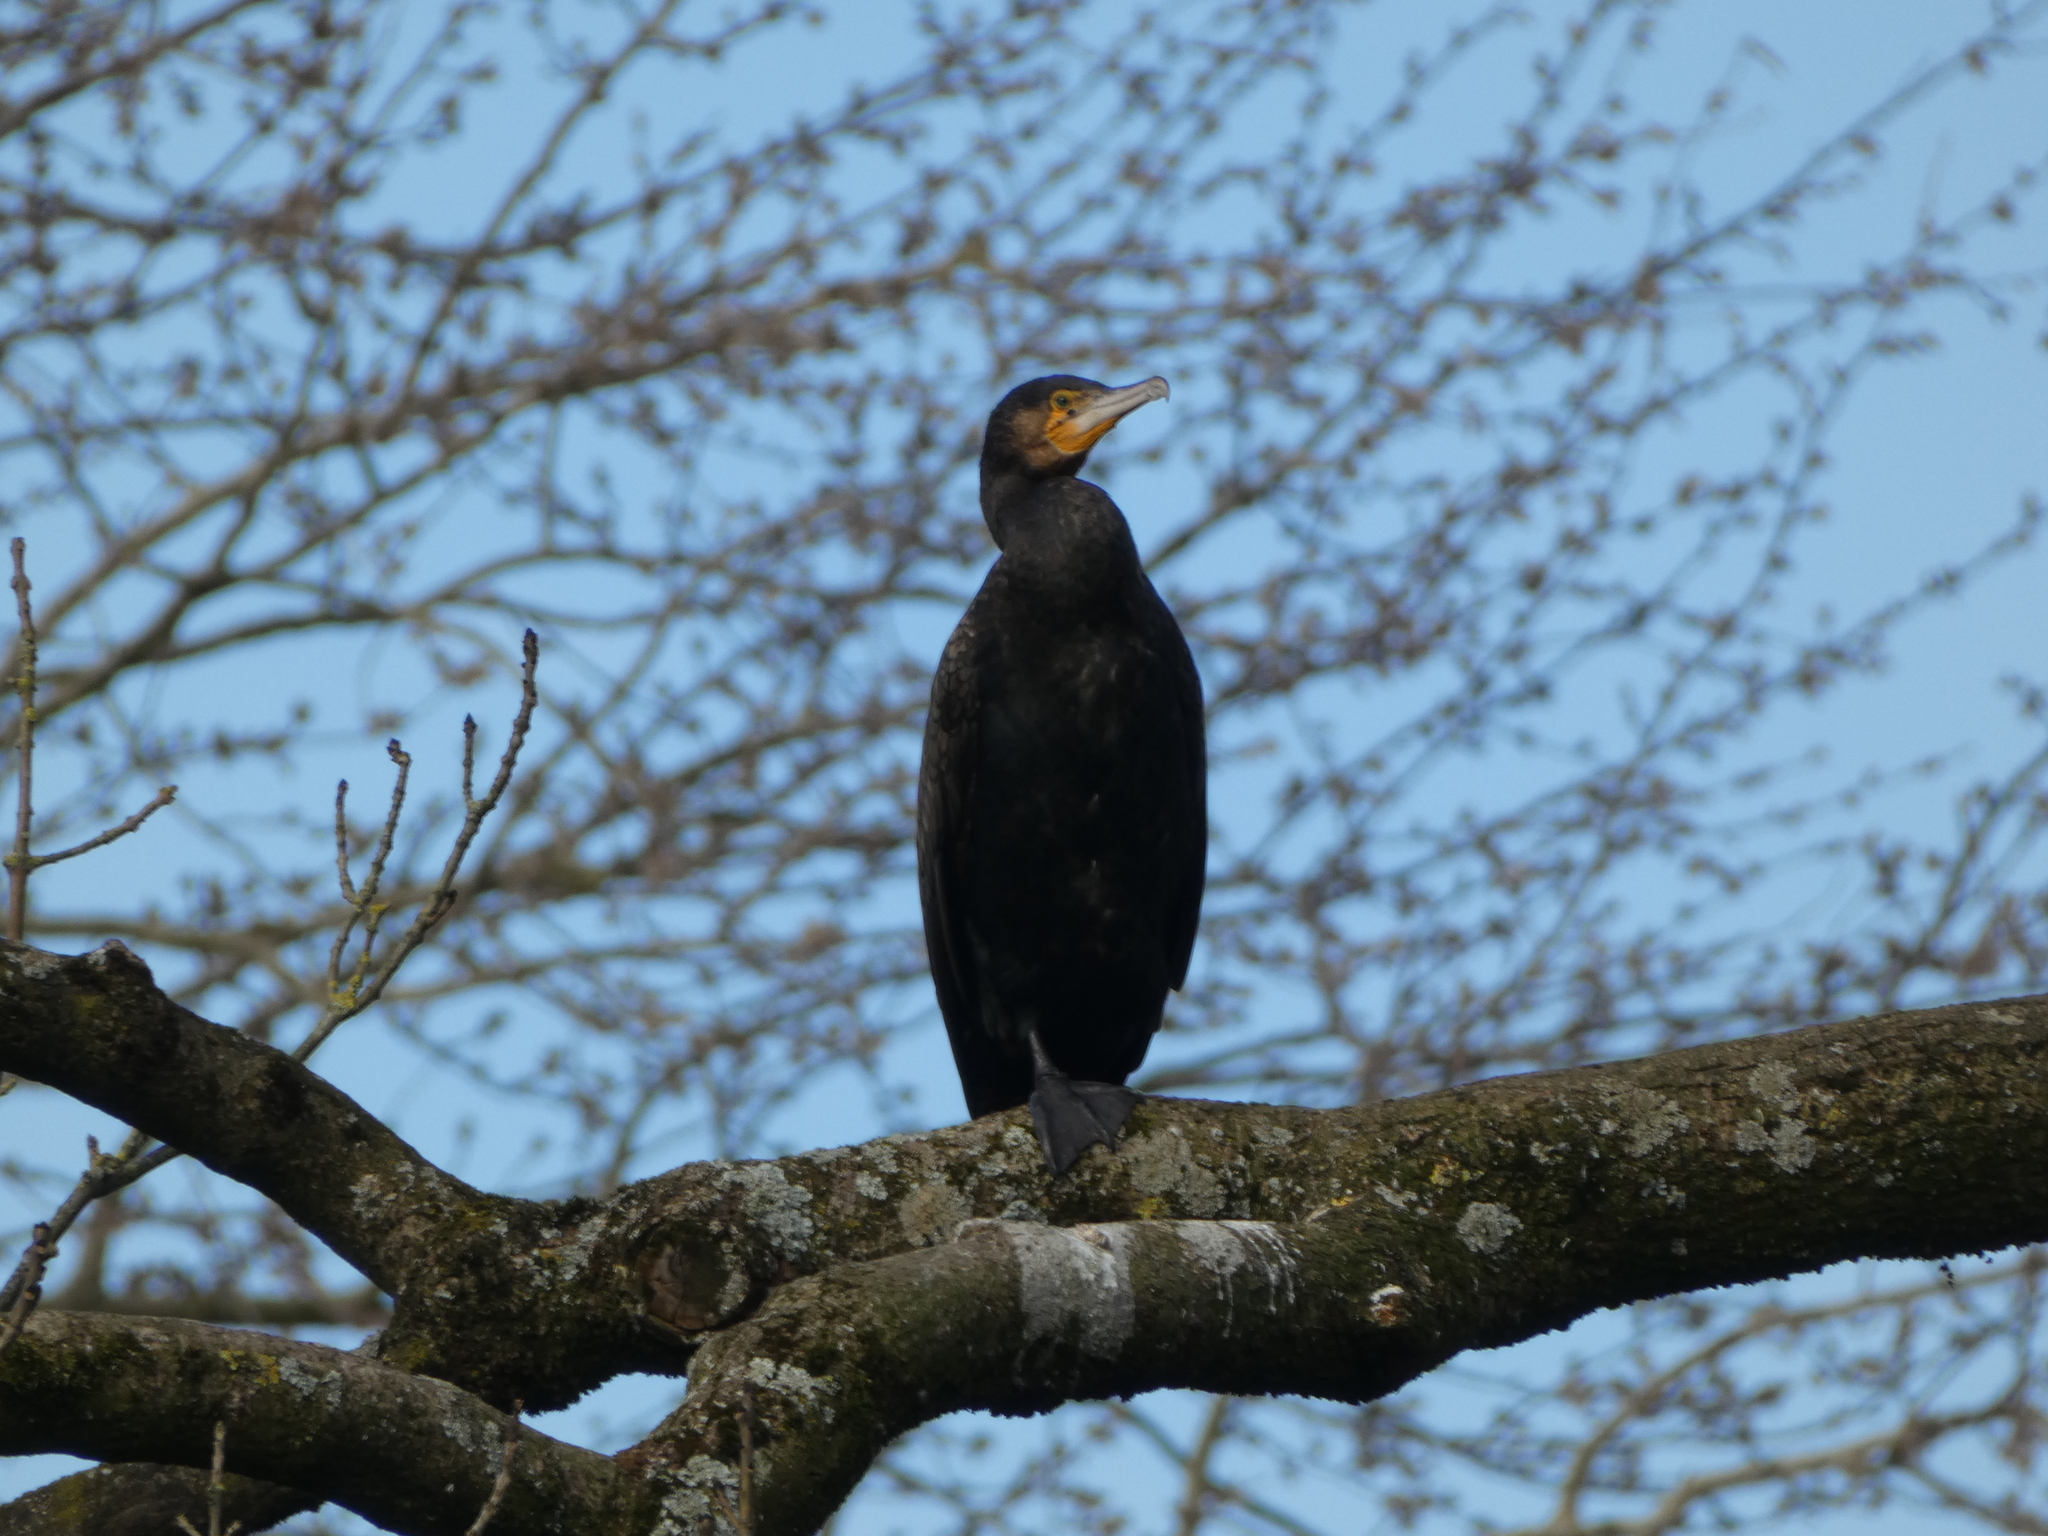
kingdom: Animalia
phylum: Chordata
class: Aves
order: Suliformes
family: Phalacrocoracidae
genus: Phalacrocorax
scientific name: Phalacrocorax carbo
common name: Great cormorant
